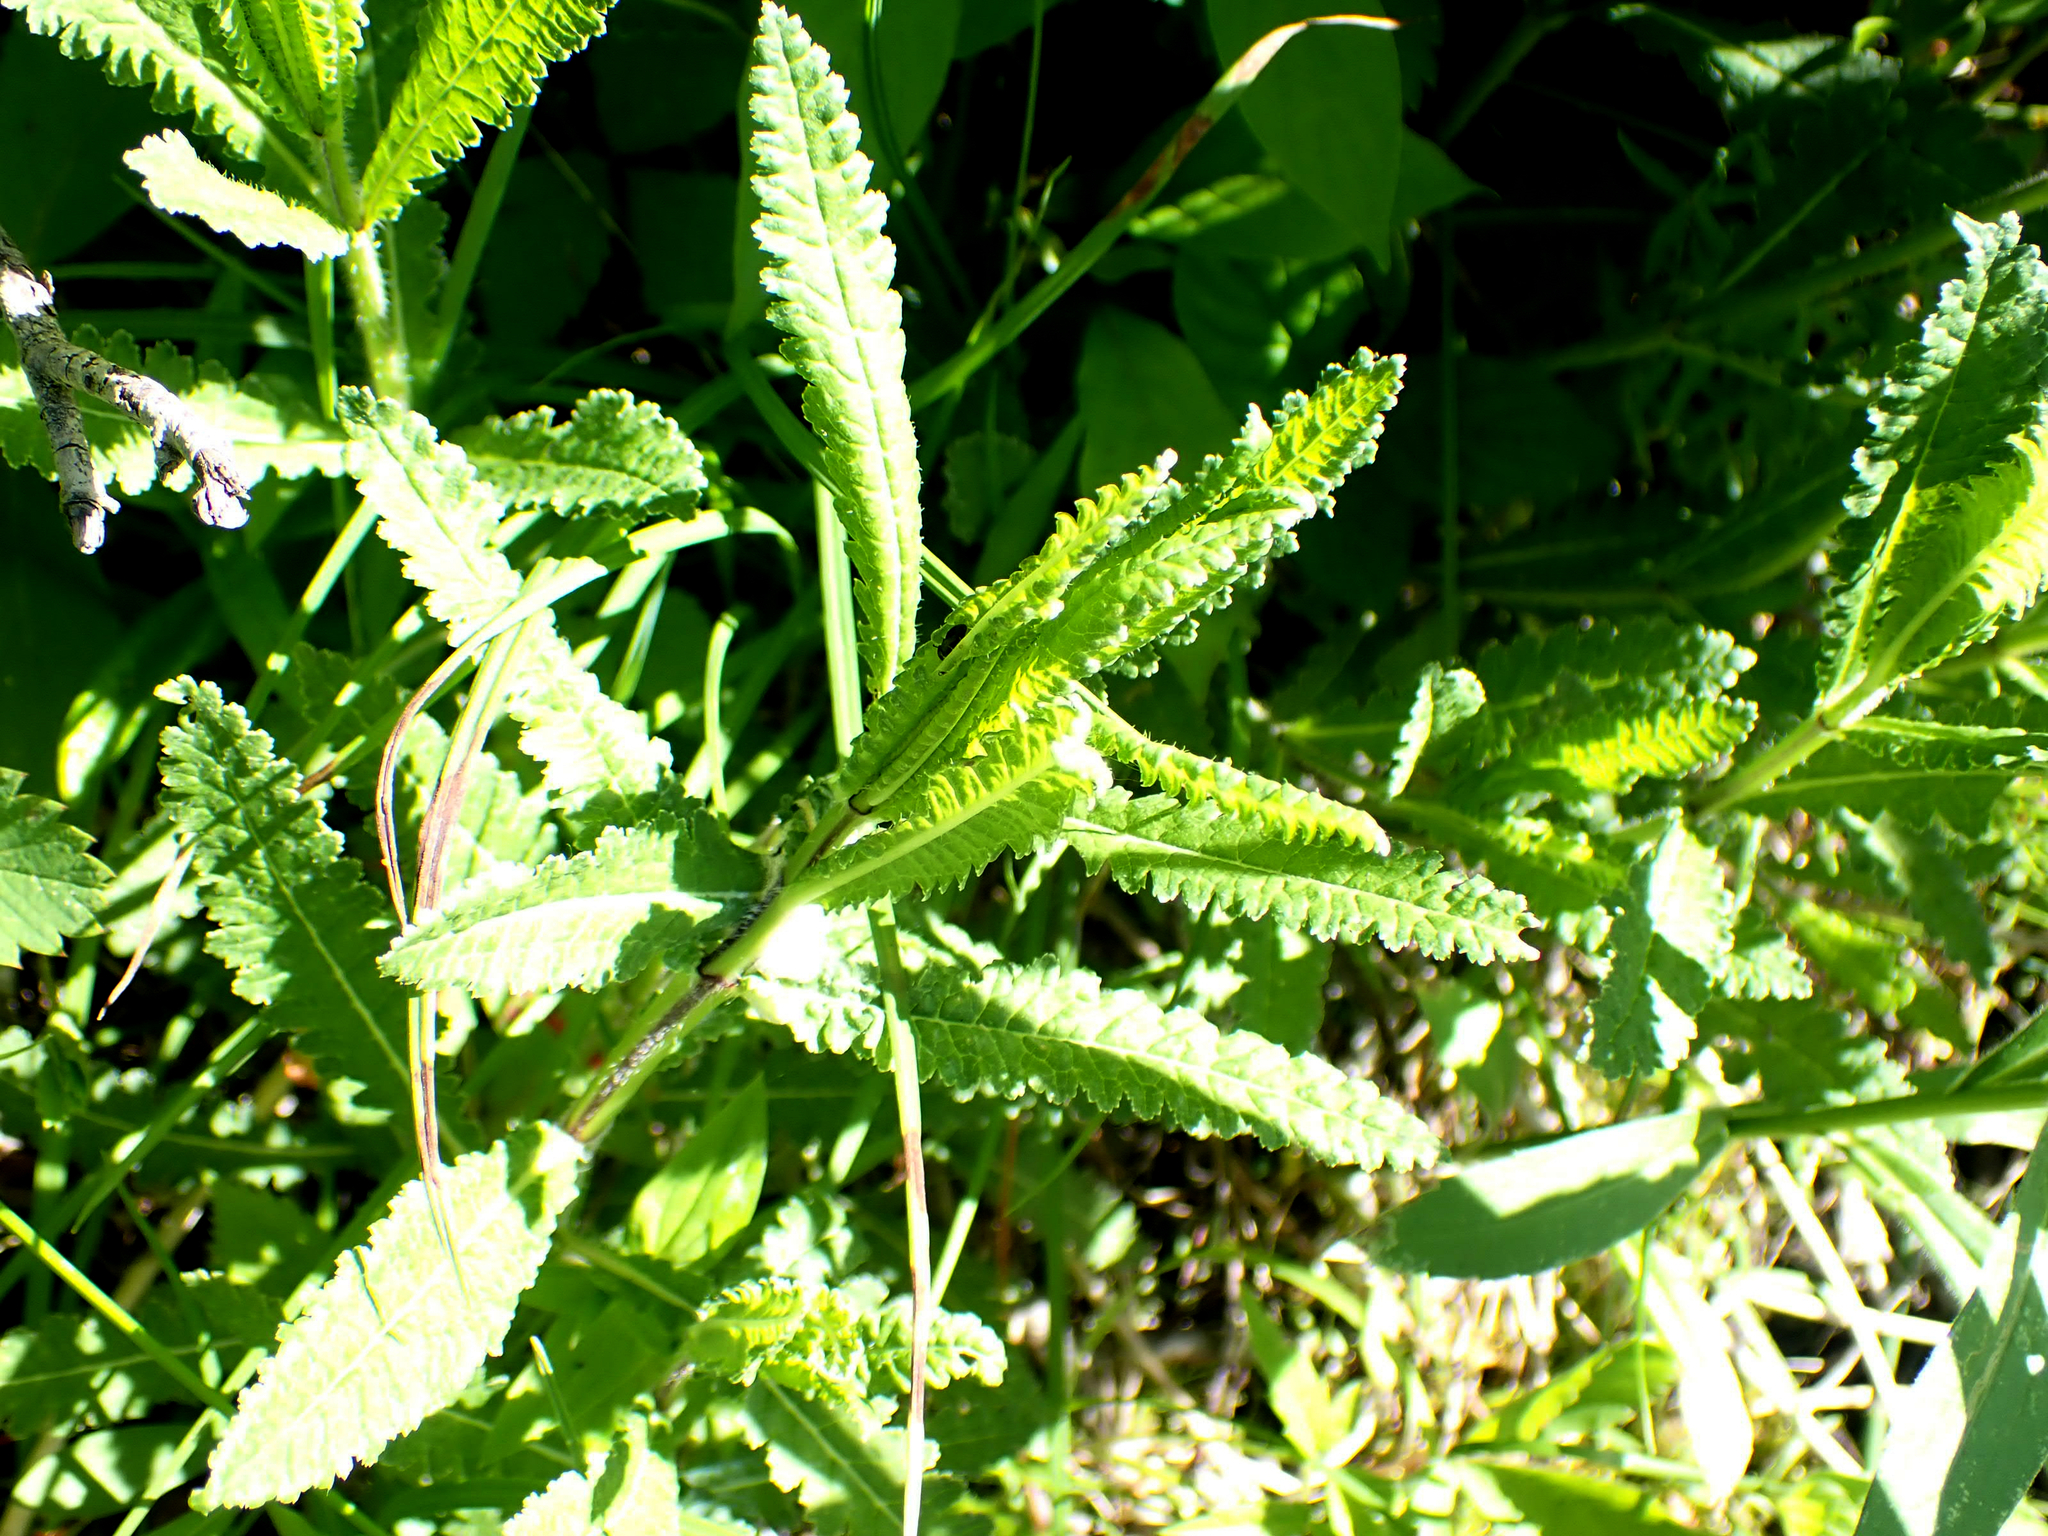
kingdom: Plantae
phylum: Tracheophyta
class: Magnoliopsida
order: Lamiales
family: Orobanchaceae
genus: Pedicularis
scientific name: Pedicularis lanceolata
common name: Swamp lousewort
